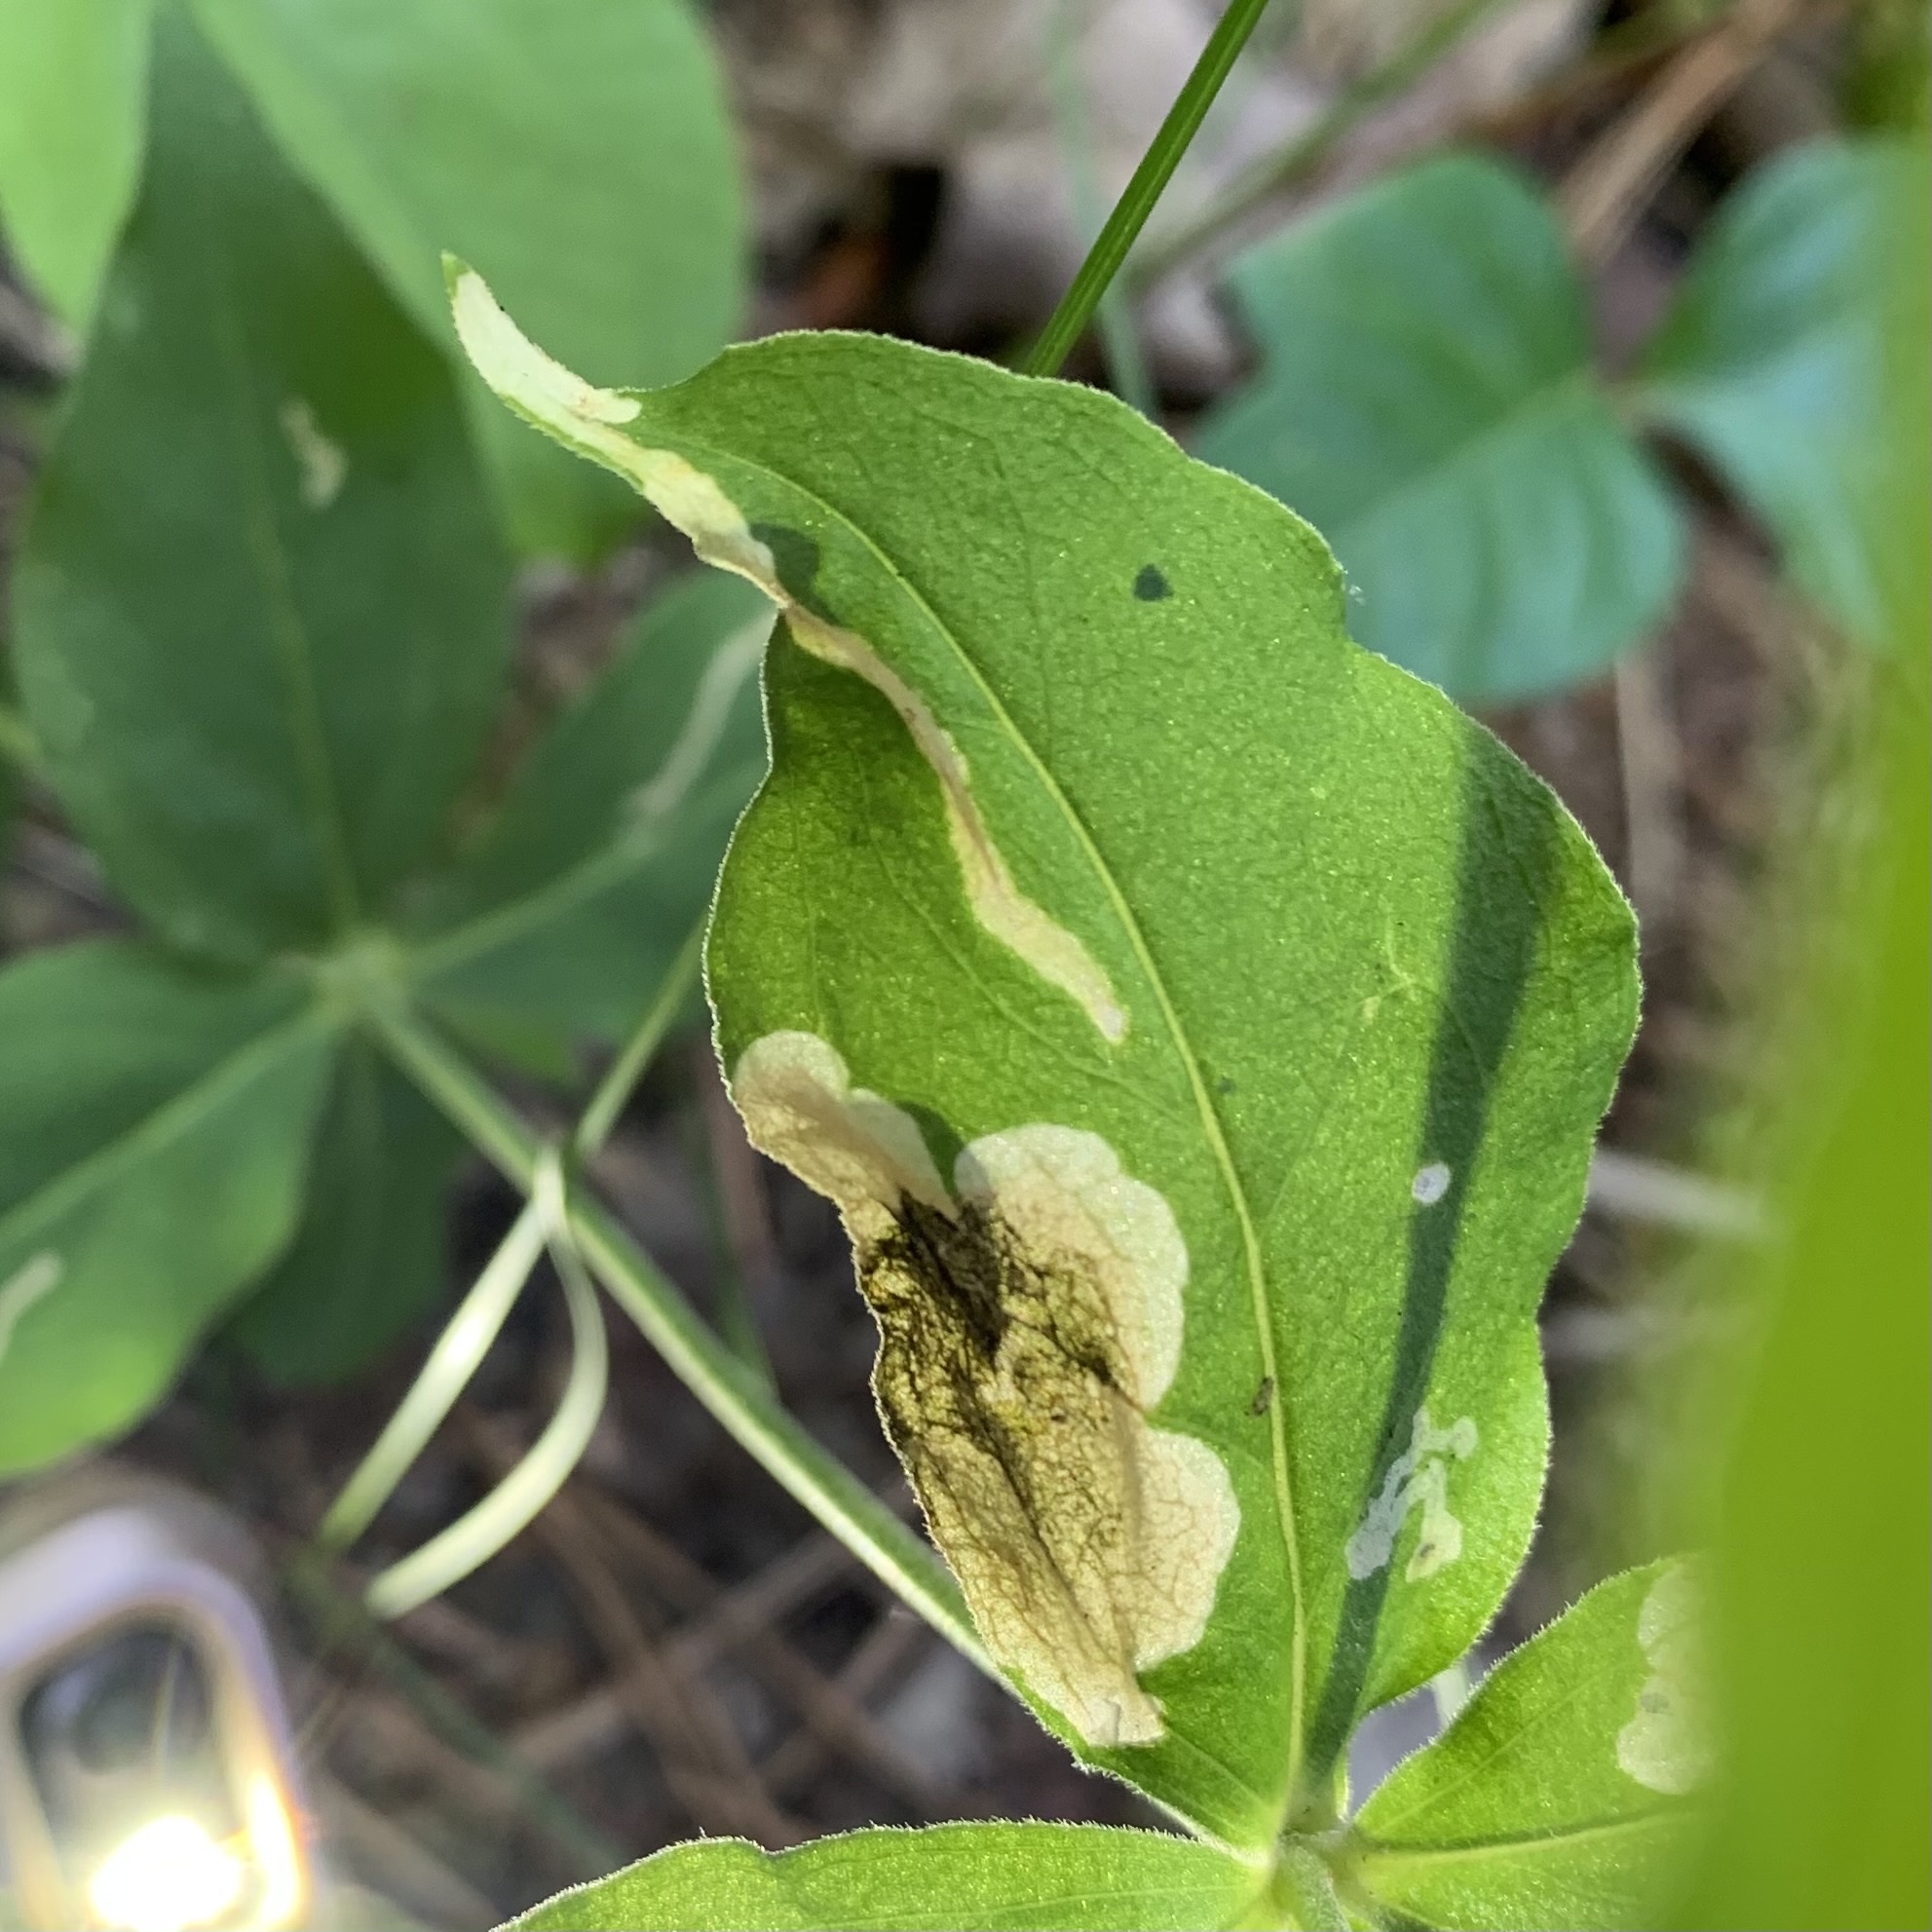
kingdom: Animalia
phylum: Arthropoda
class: Insecta
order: Diptera
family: Anthomyiidae
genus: Pegomya
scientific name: Pegomya flavifrons
